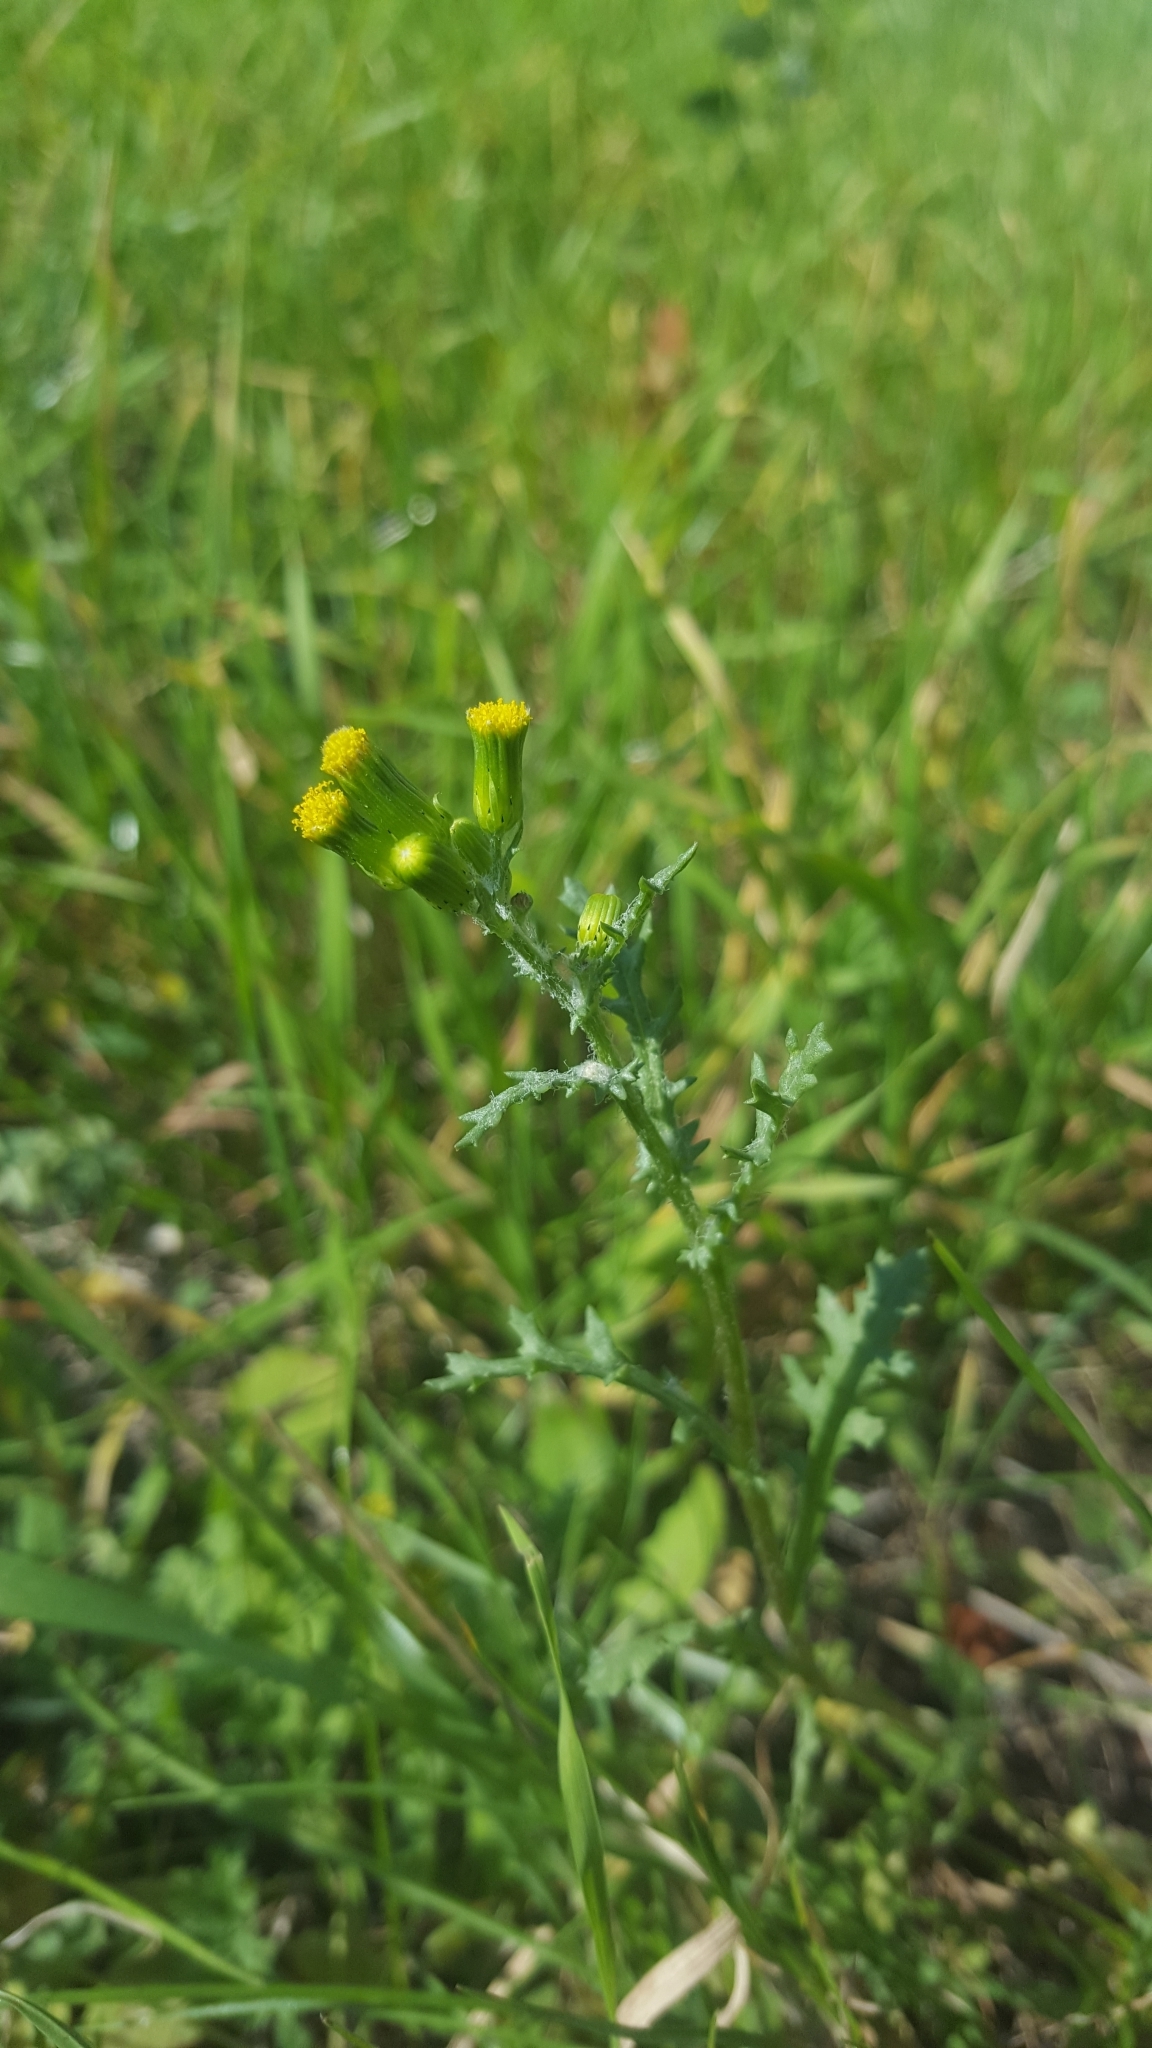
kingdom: Plantae
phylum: Tracheophyta
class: Magnoliopsida
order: Asterales
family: Asteraceae
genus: Senecio
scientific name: Senecio vulgaris
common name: Old-man-in-the-spring
